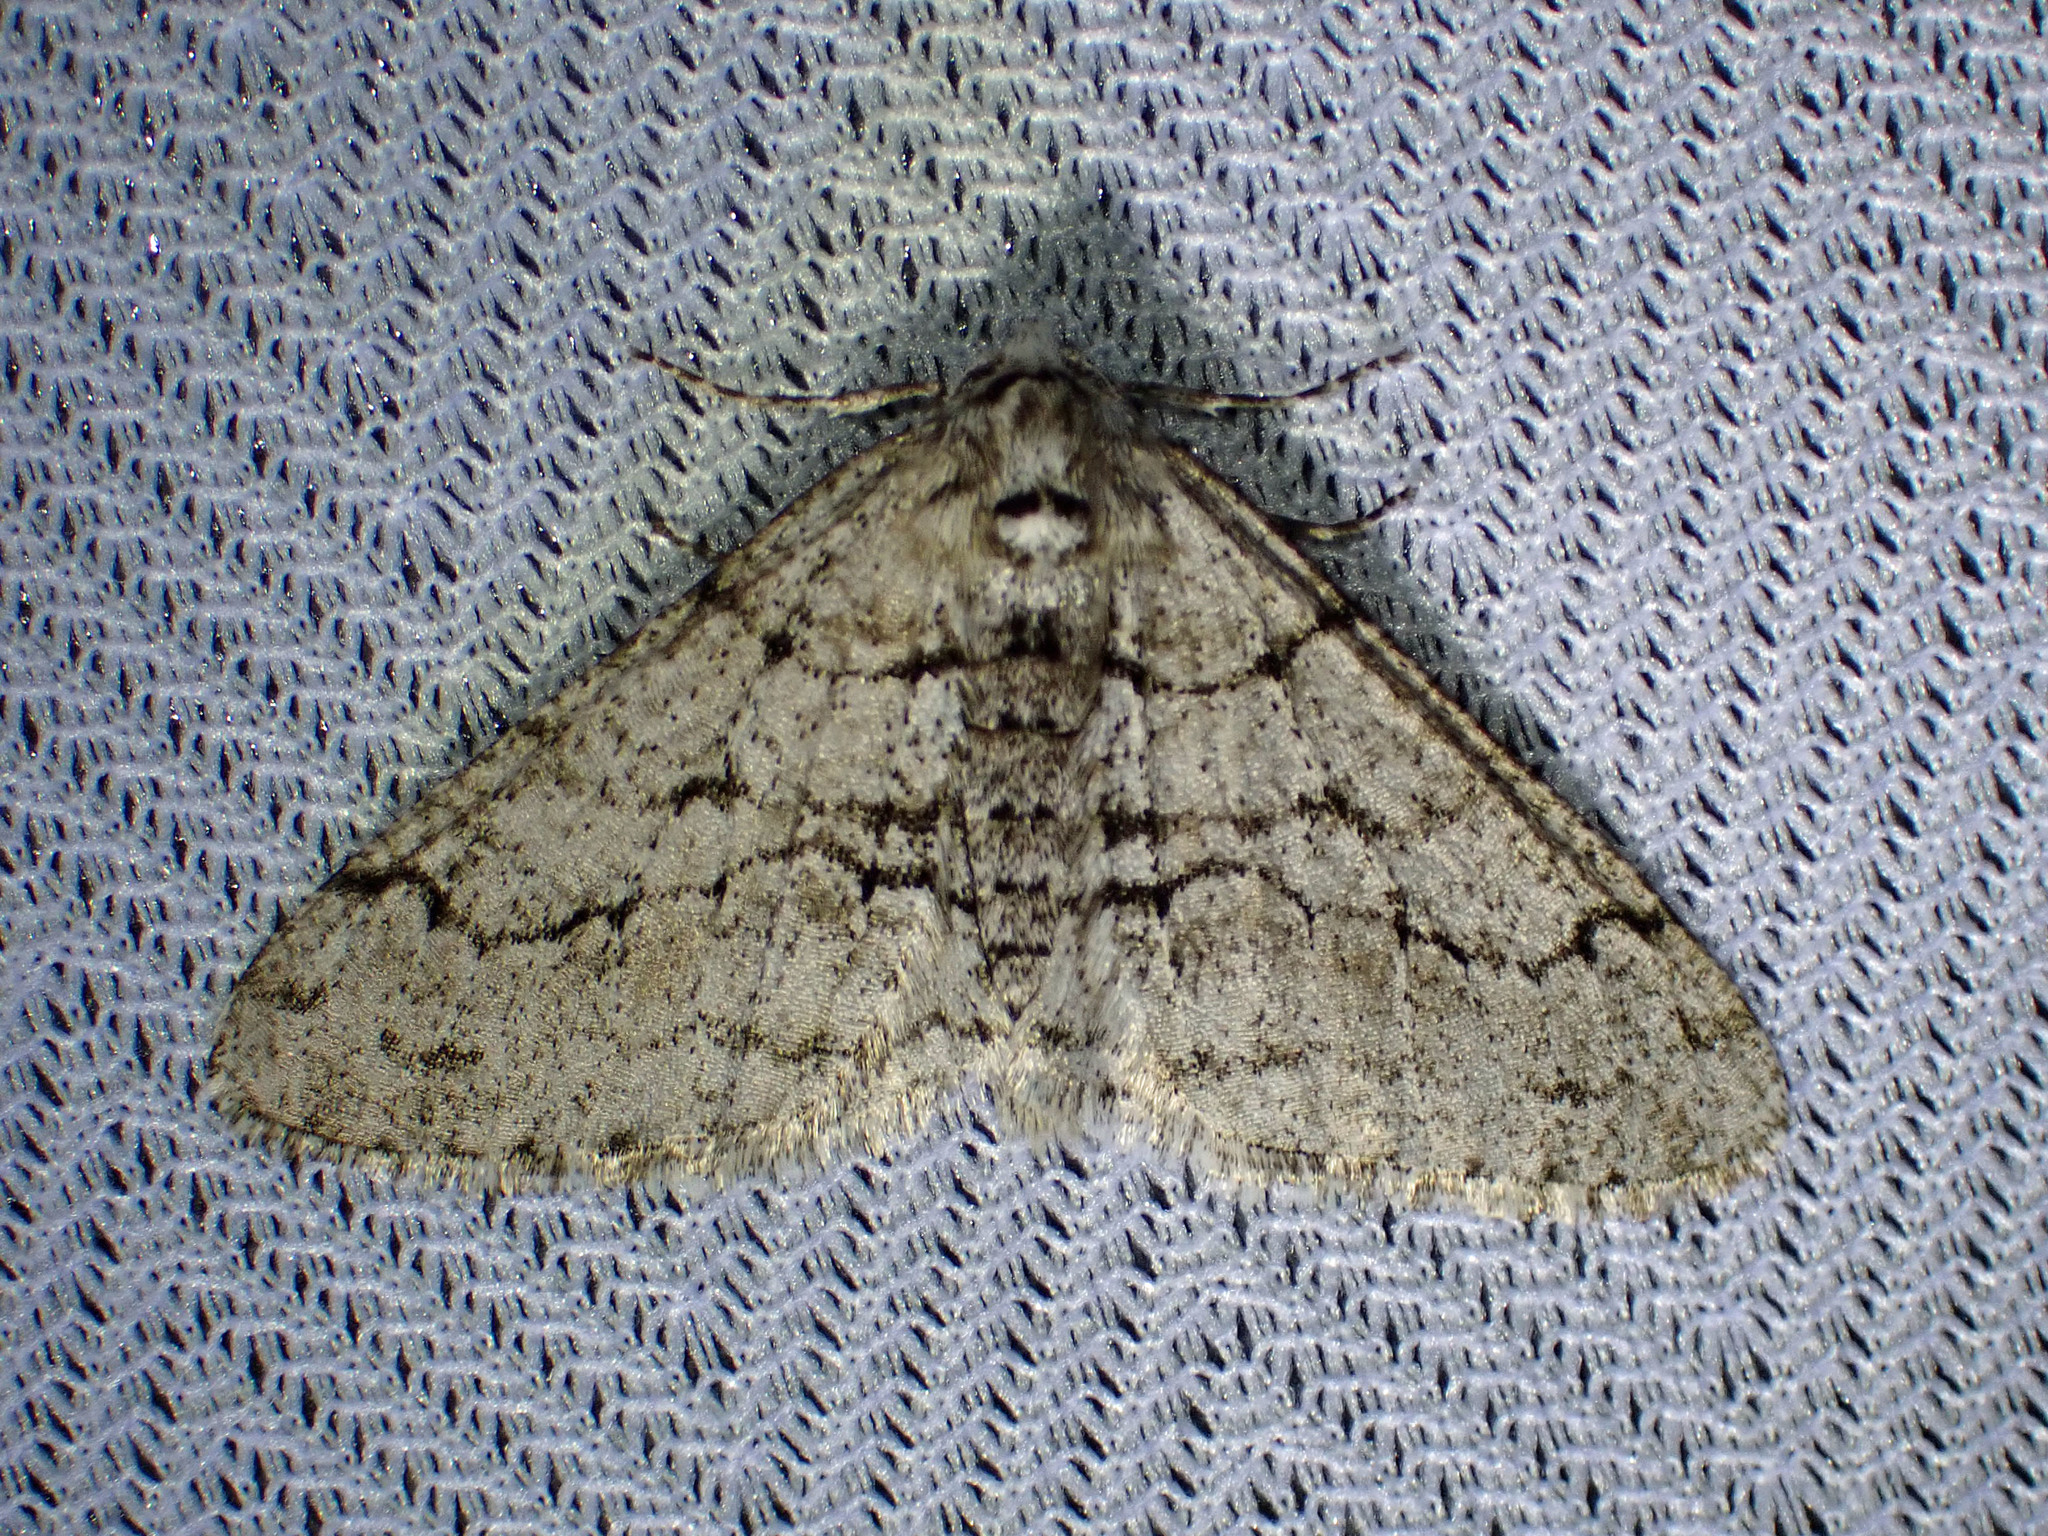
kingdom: Animalia
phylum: Arthropoda
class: Insecta
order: Lepidoptera
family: Geometridae
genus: Phigalia
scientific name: Phigalia titea
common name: Spiny looper
